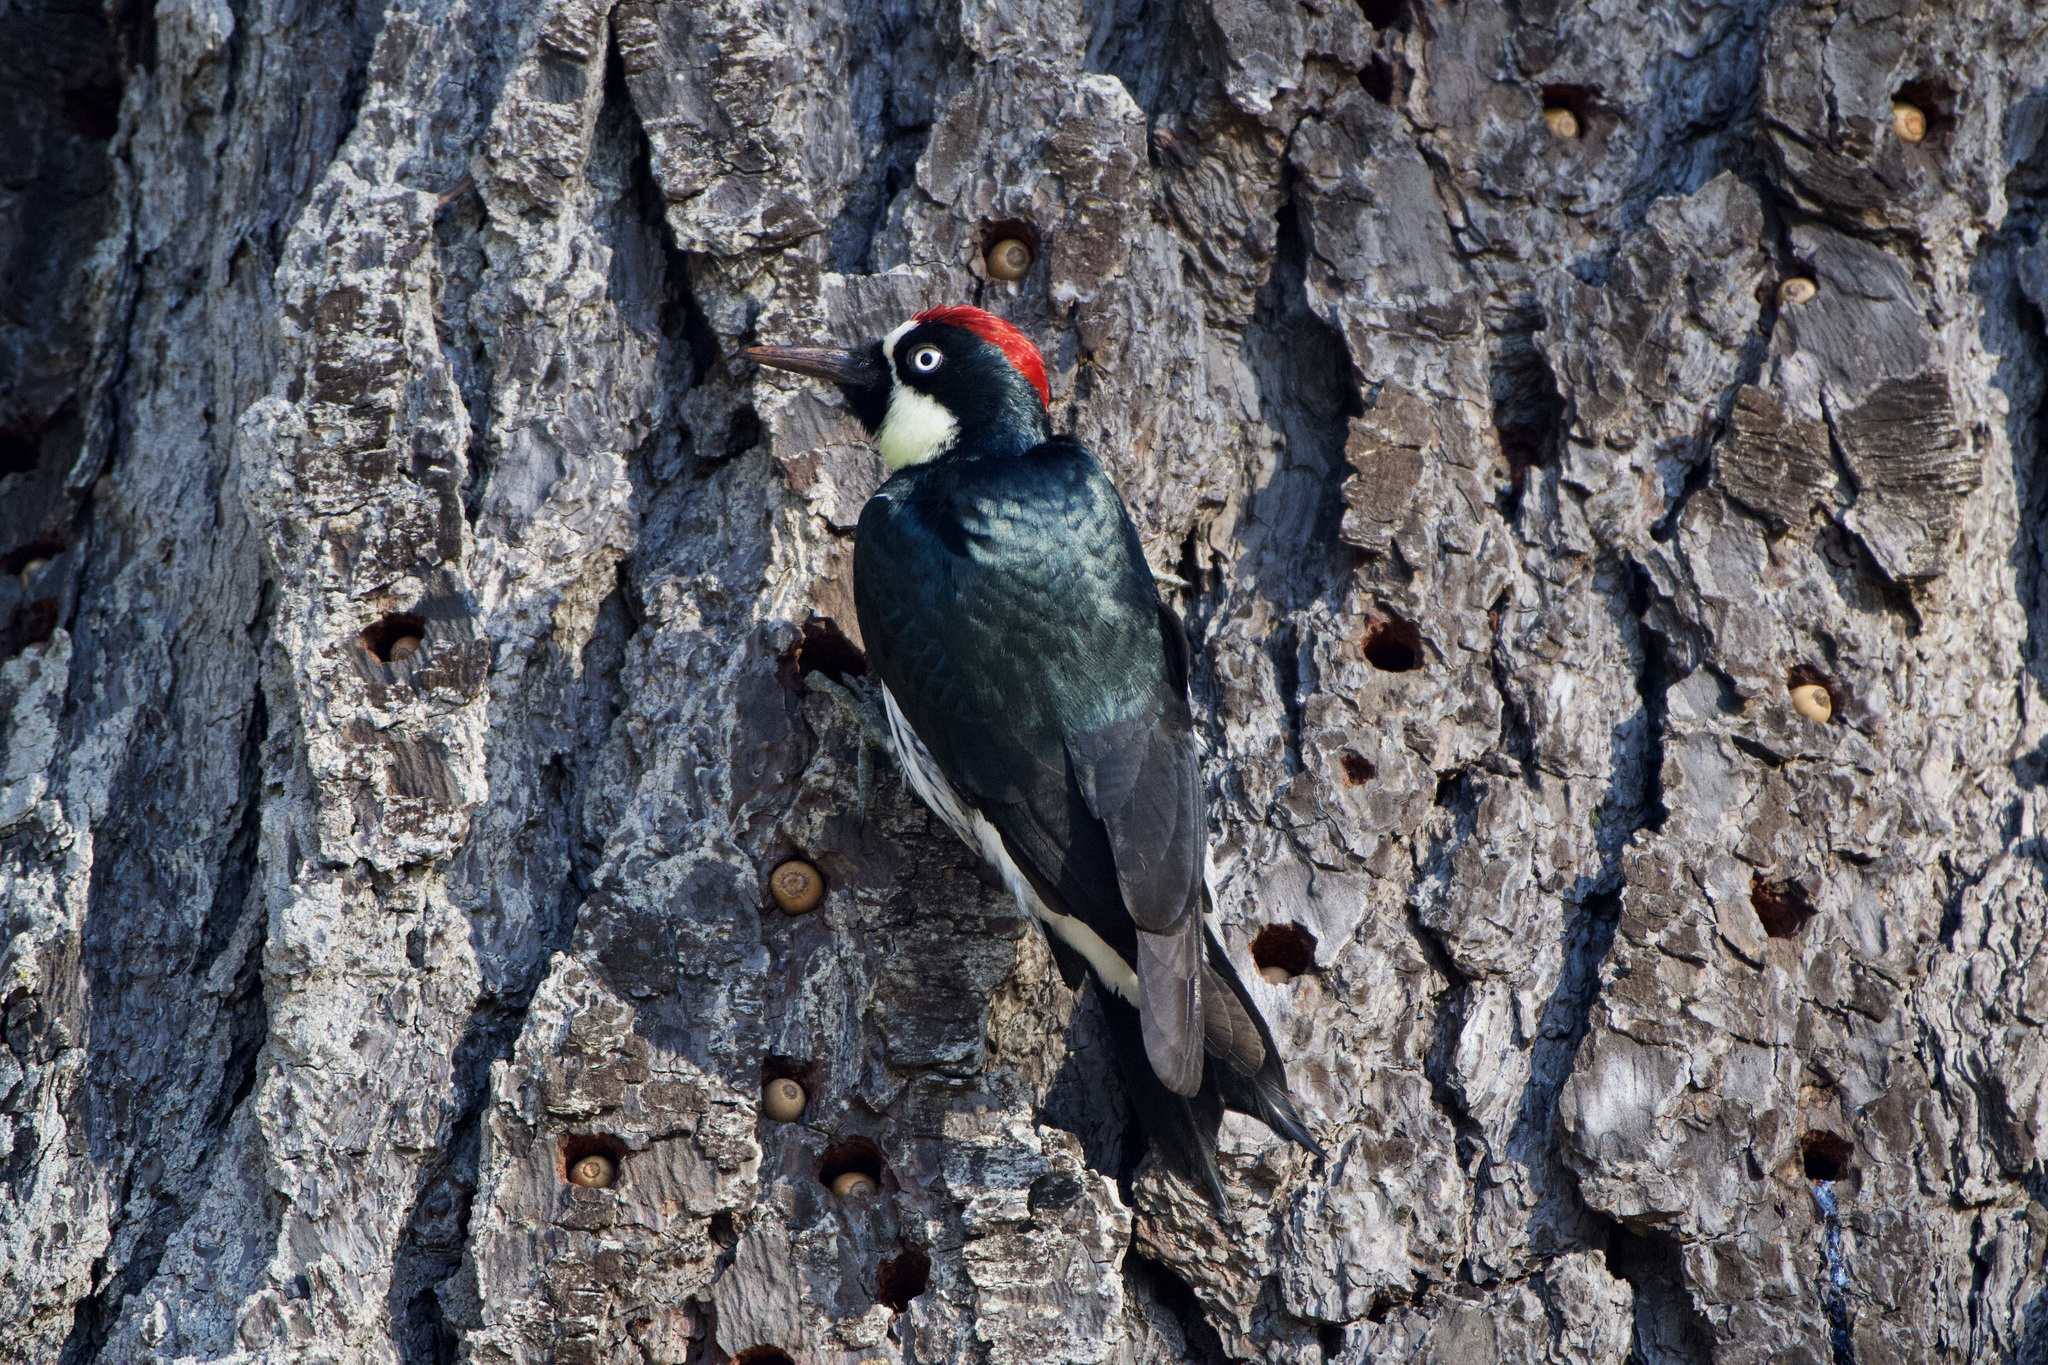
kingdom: Animalia
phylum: Chordata
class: Aves
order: Piciformes
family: Picidae
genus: Melanerpes
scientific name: Melanerpes formicivorus
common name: Acorn woodpecker
